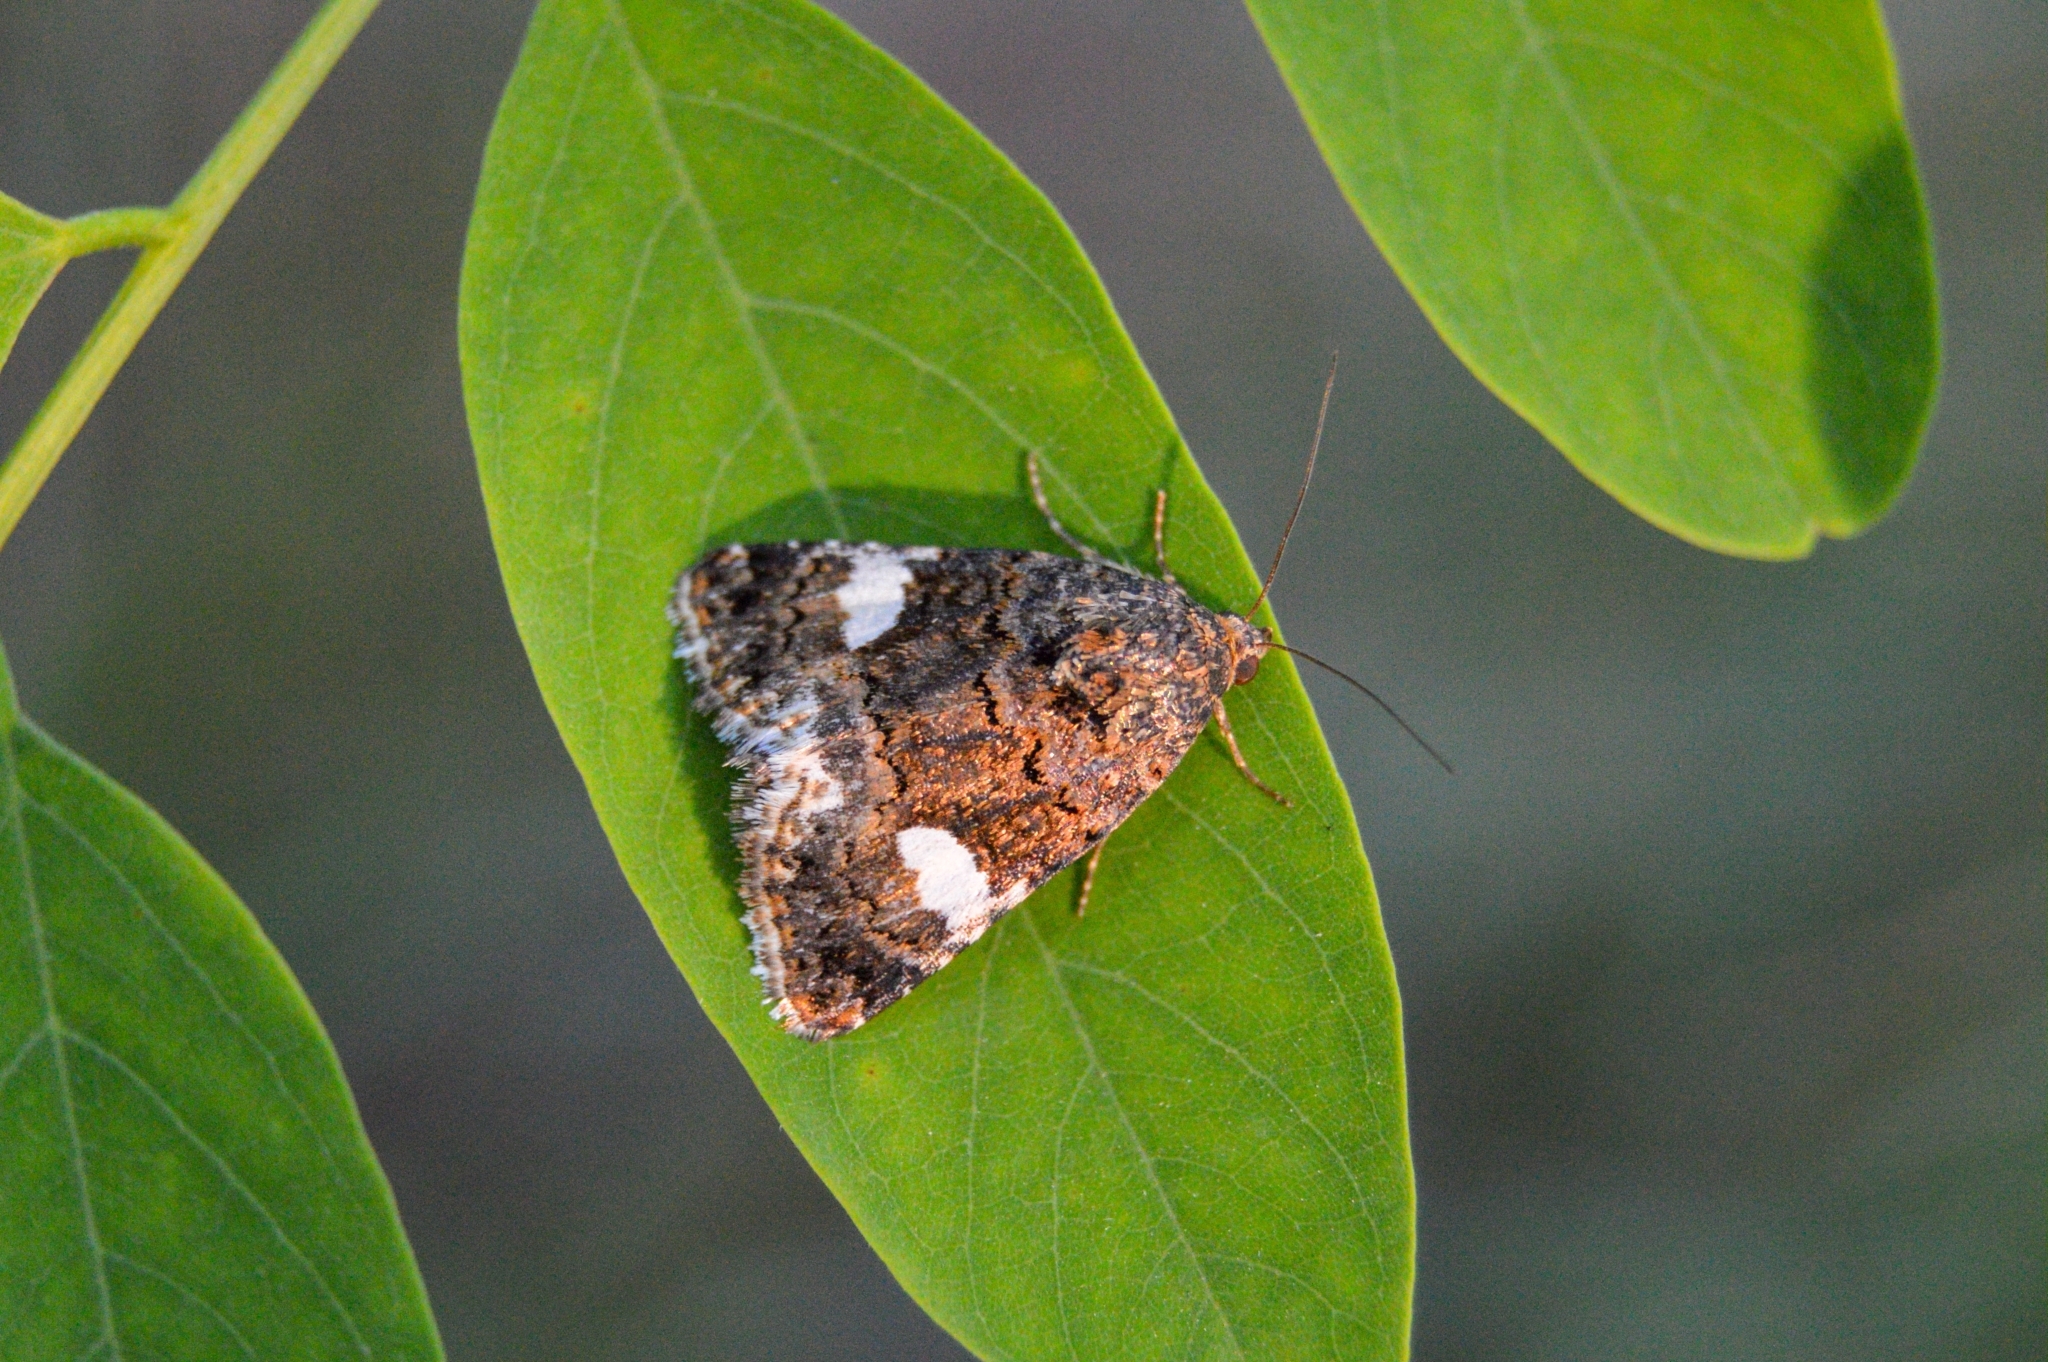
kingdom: Animalia
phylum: Arthropoda
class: Insecta
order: Lepidoptera
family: Erebidae
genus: Tyta
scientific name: Tyta luctuosa
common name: Four-spotted
